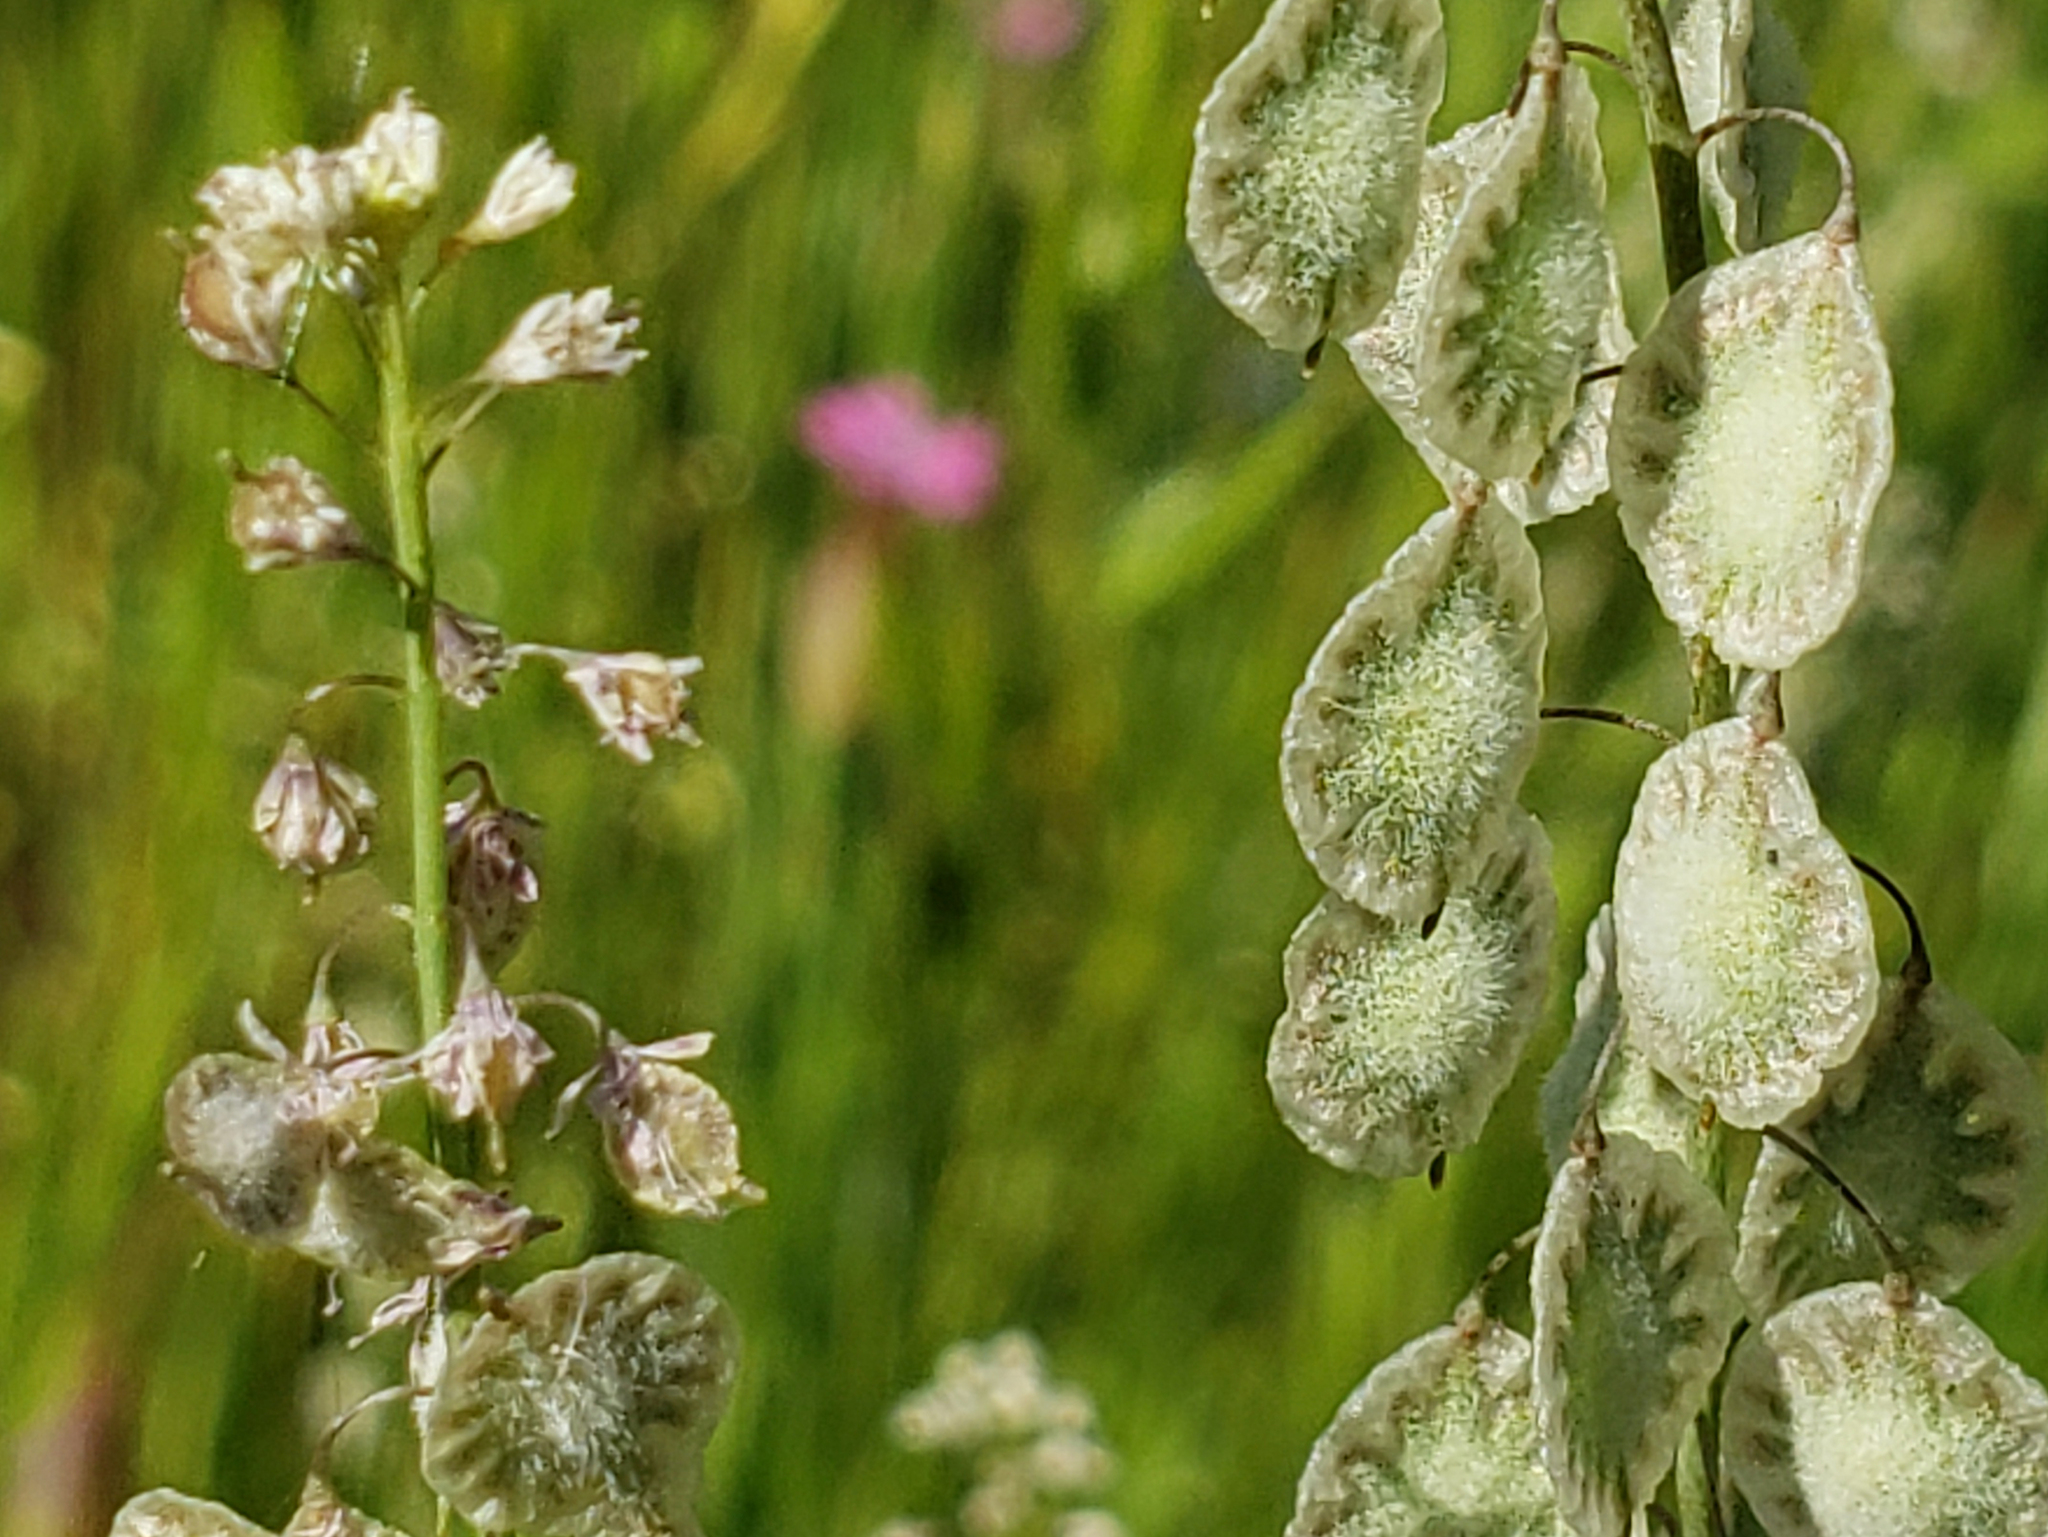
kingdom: Plantae
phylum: Tracheophyta
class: Magnoliopsida
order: Brassicales
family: Brassicaceae
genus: Thysanocarpus
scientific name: Thysanocarpus curvipes
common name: Sand fringepod
